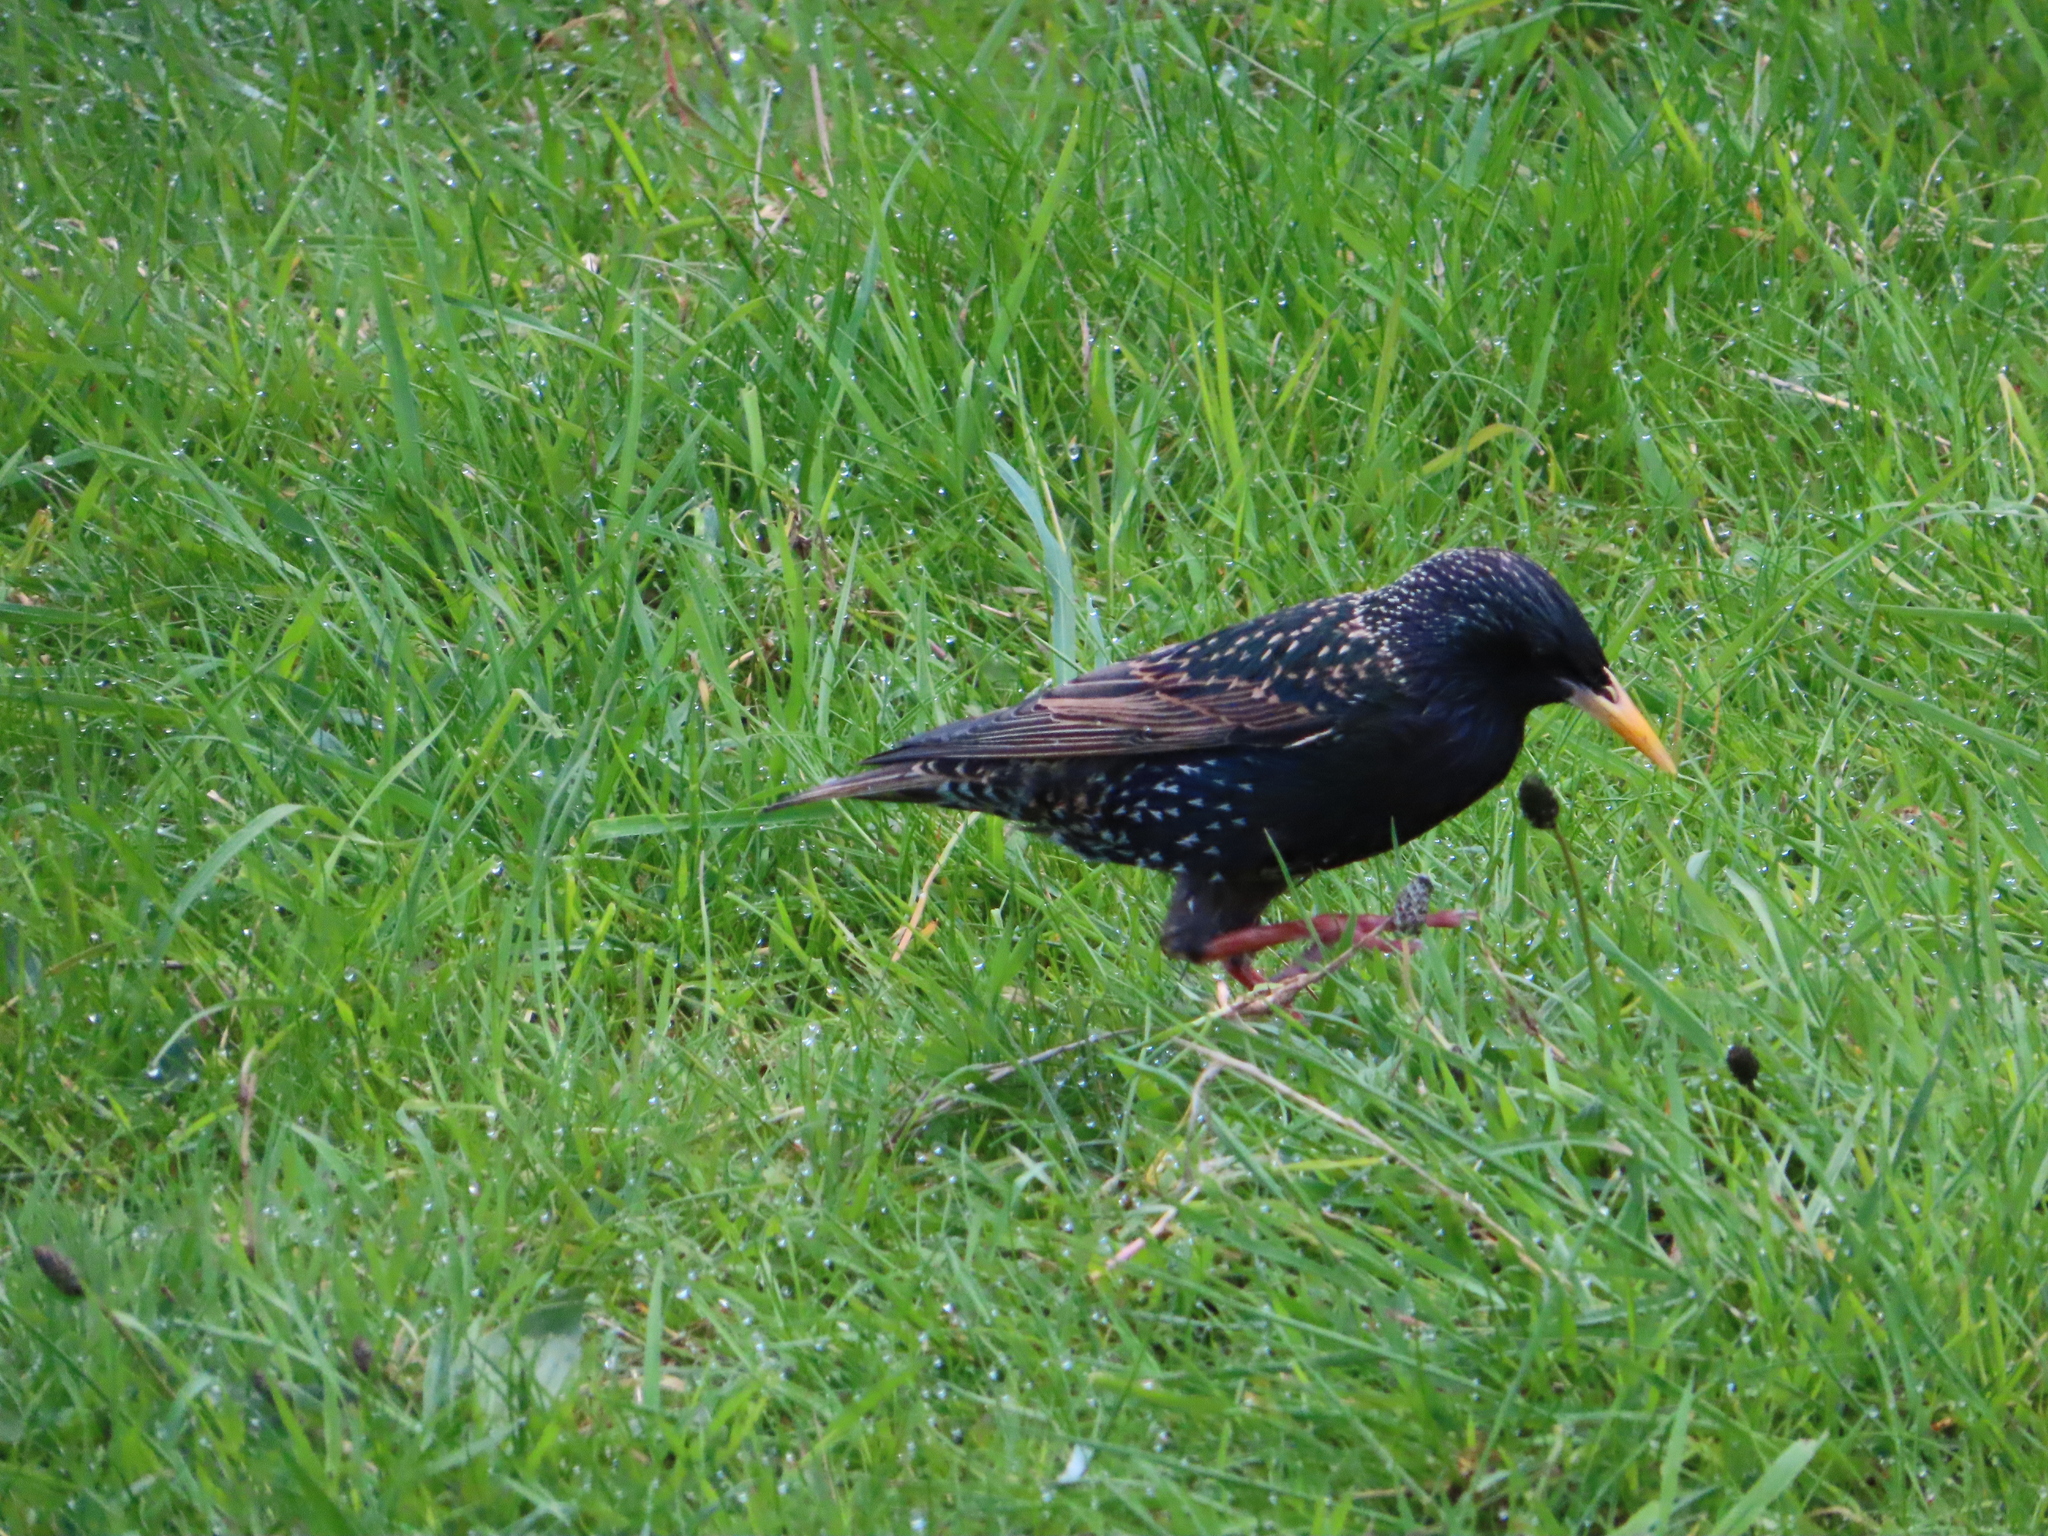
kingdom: Animalia
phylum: Chordata
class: Aves
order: Passeriformes
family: Sturnidae
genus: Sturnus
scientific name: Sturnus vulgaris
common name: Common starling
